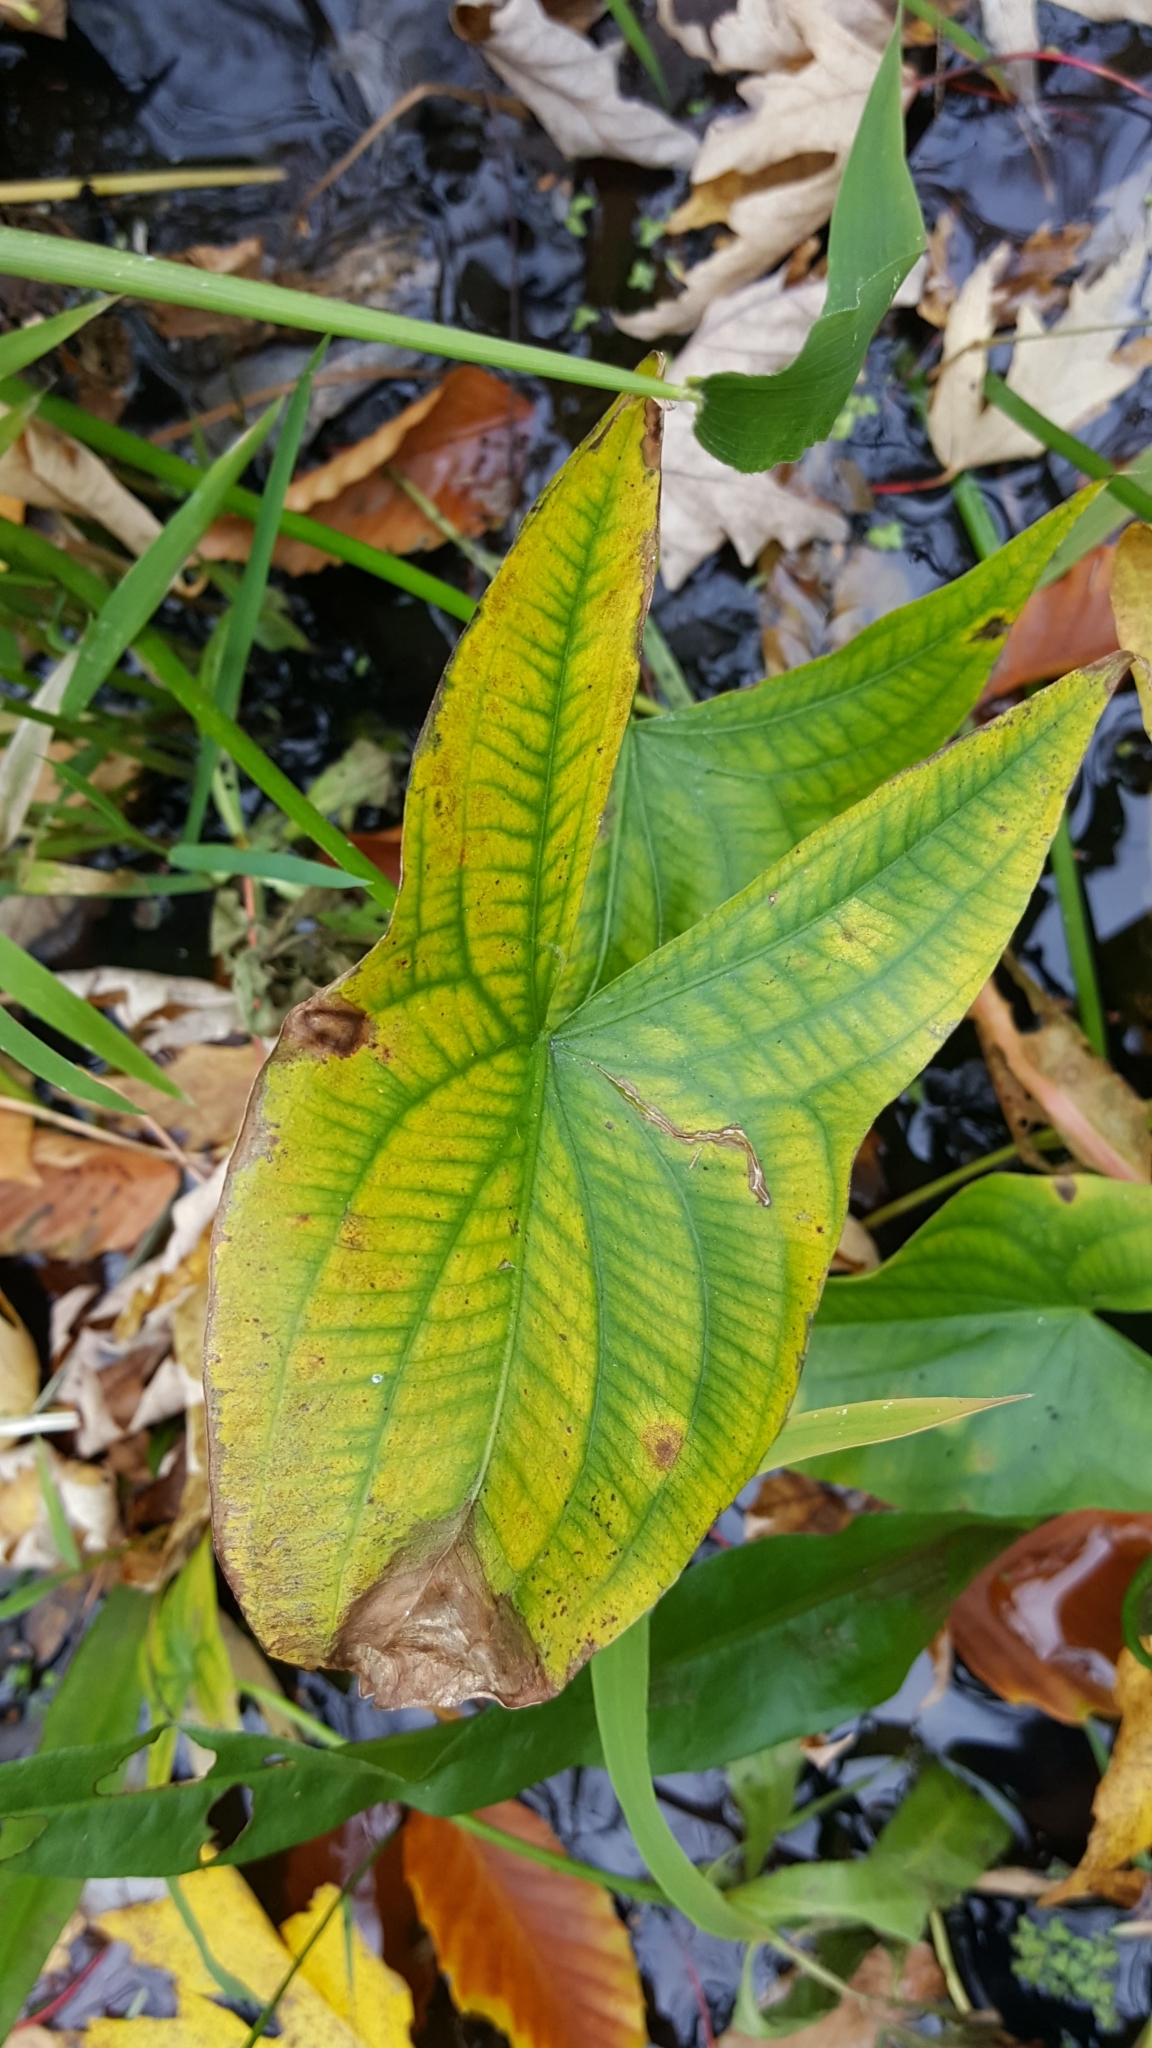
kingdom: Plantae
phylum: Tracheophyta
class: Liliopsida
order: Alismatales
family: Alismataceae
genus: Sagittaria
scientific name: Sagittaria latifolia
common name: Duck-potato
